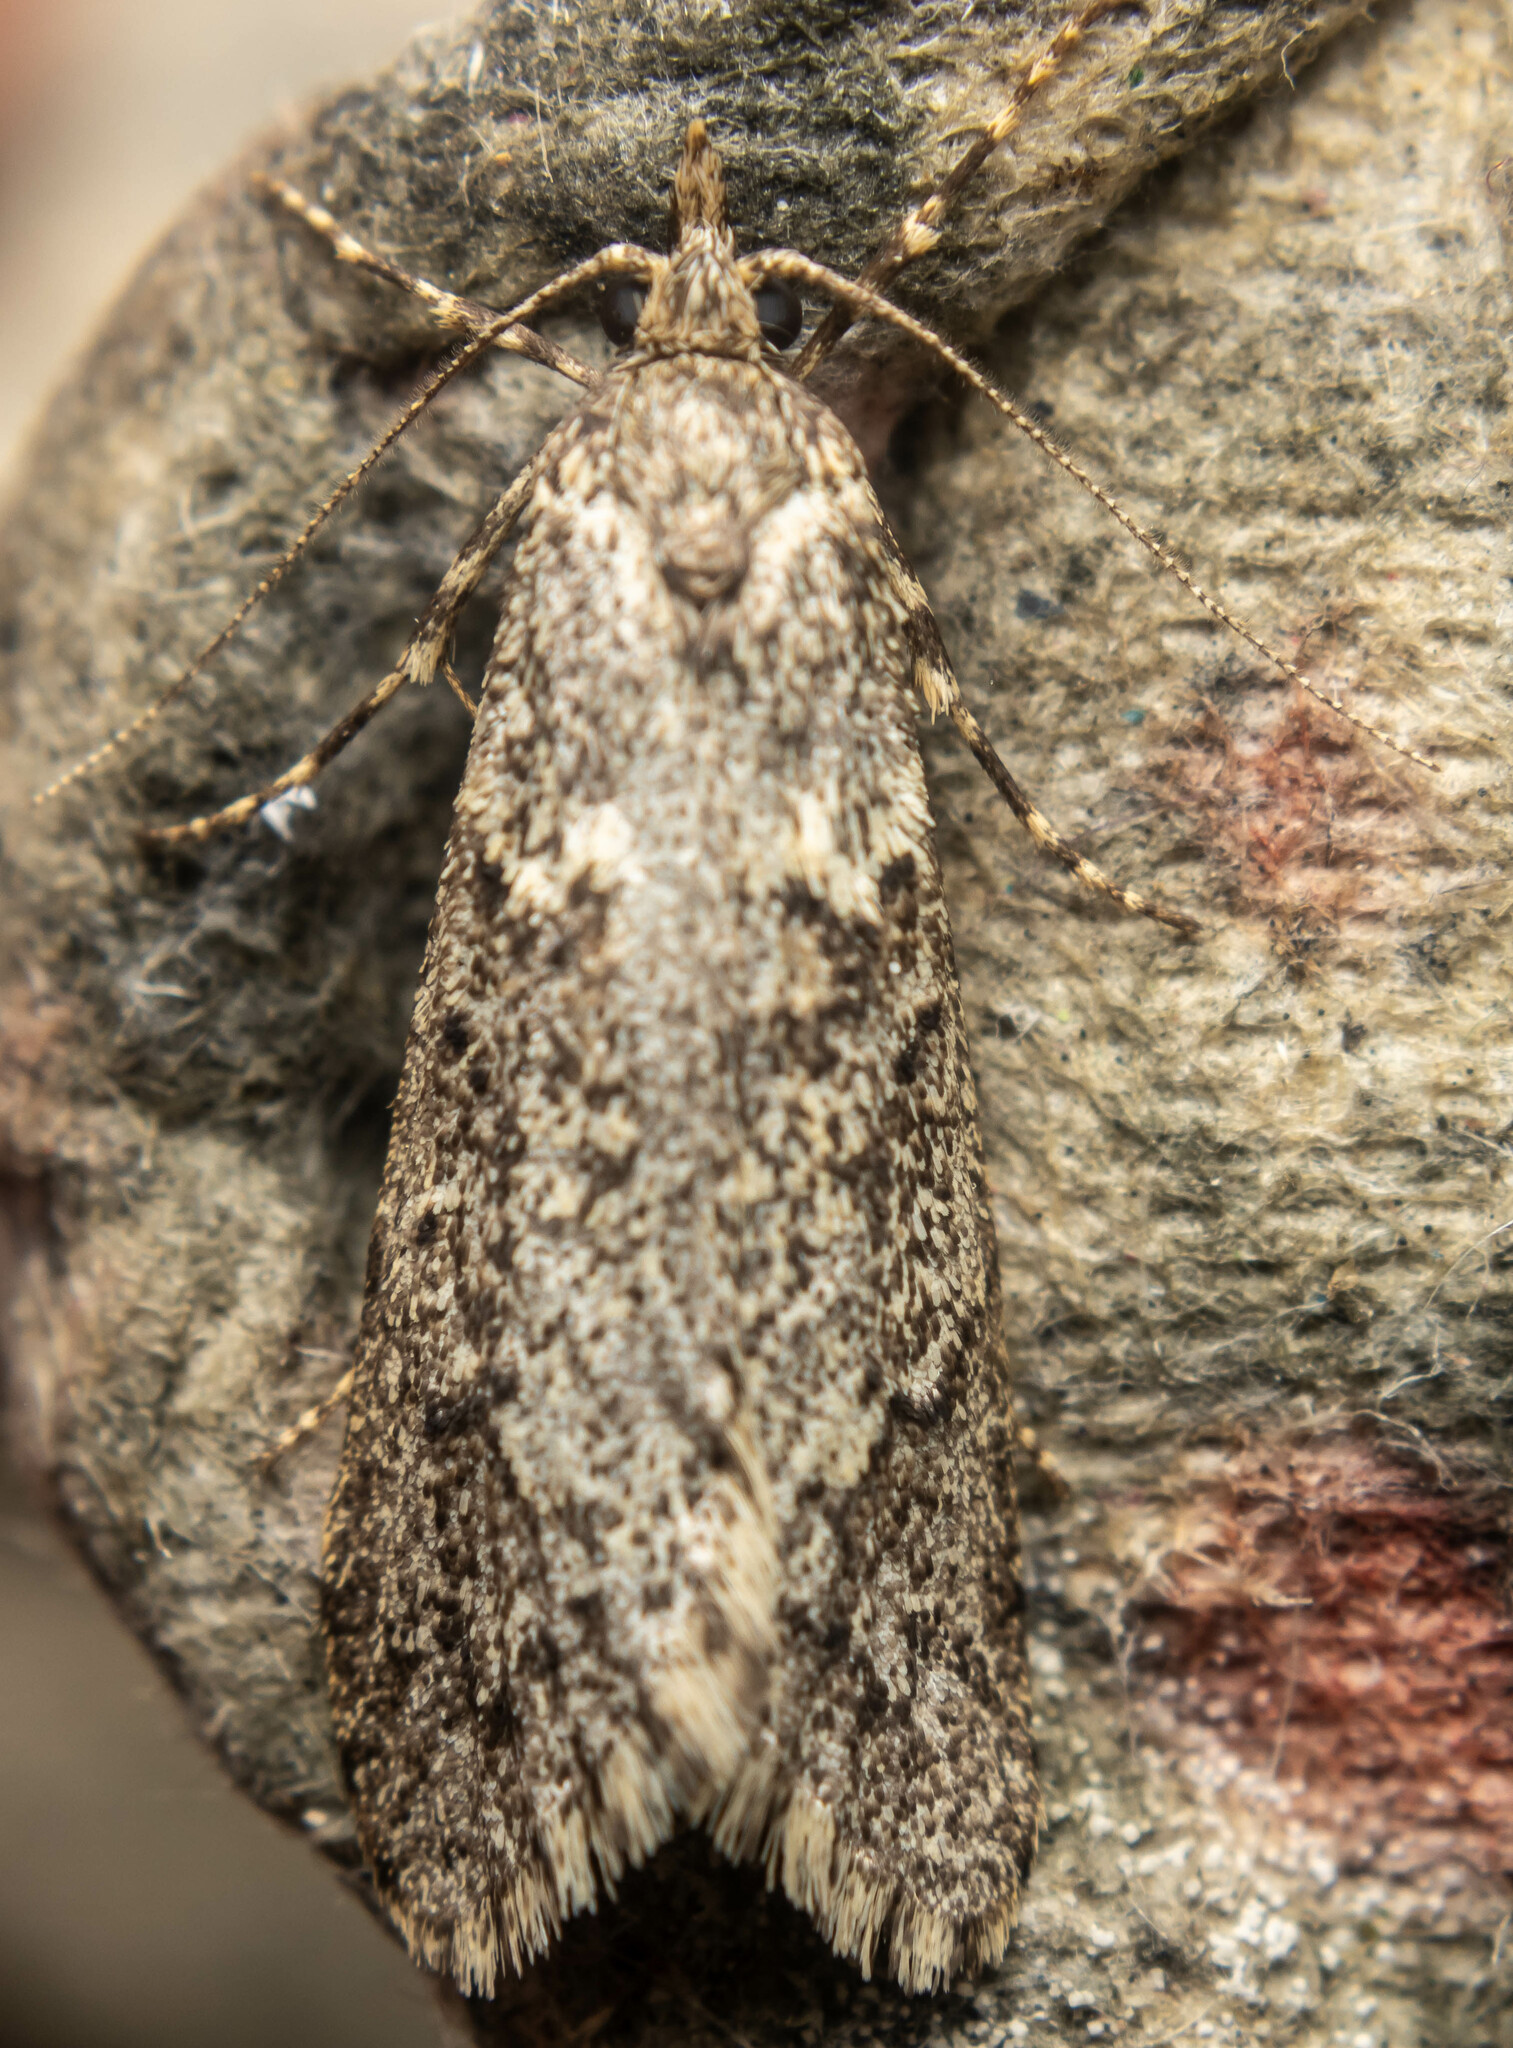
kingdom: Animalia
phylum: Arthropoda
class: Insecta
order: Lepidoptera
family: Lypusidae
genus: Diurnea
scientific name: Diurnea fagella
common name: March tubic
